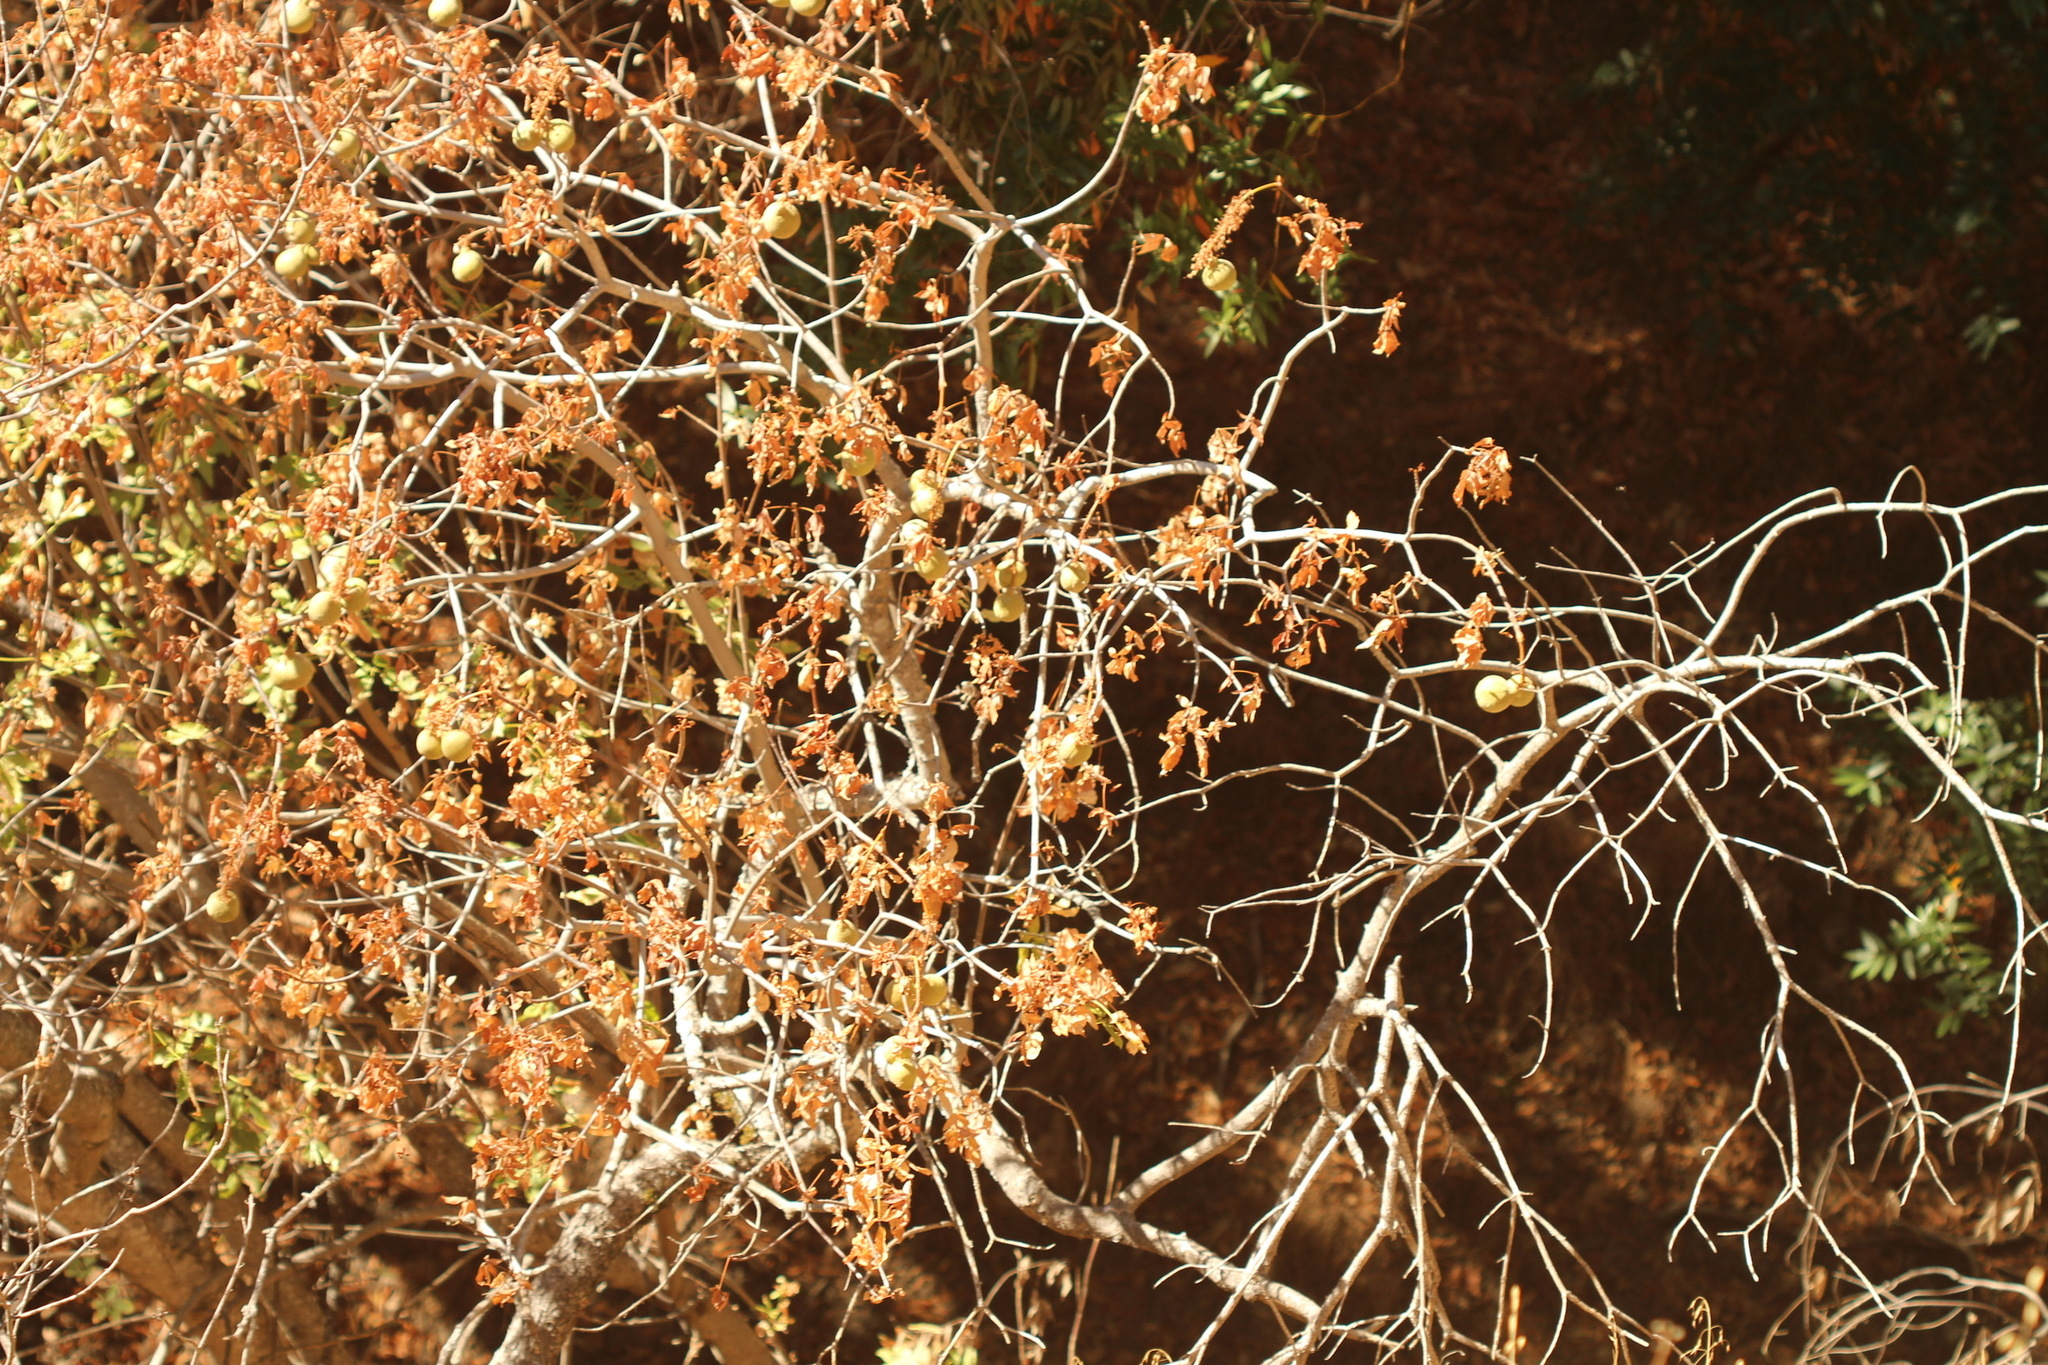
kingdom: Plantae
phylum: Tracheophyta
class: Magnoliopsida
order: Sapindales
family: Sapindaceae
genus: Aesculus
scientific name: Aesculus californica
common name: California buckeye
